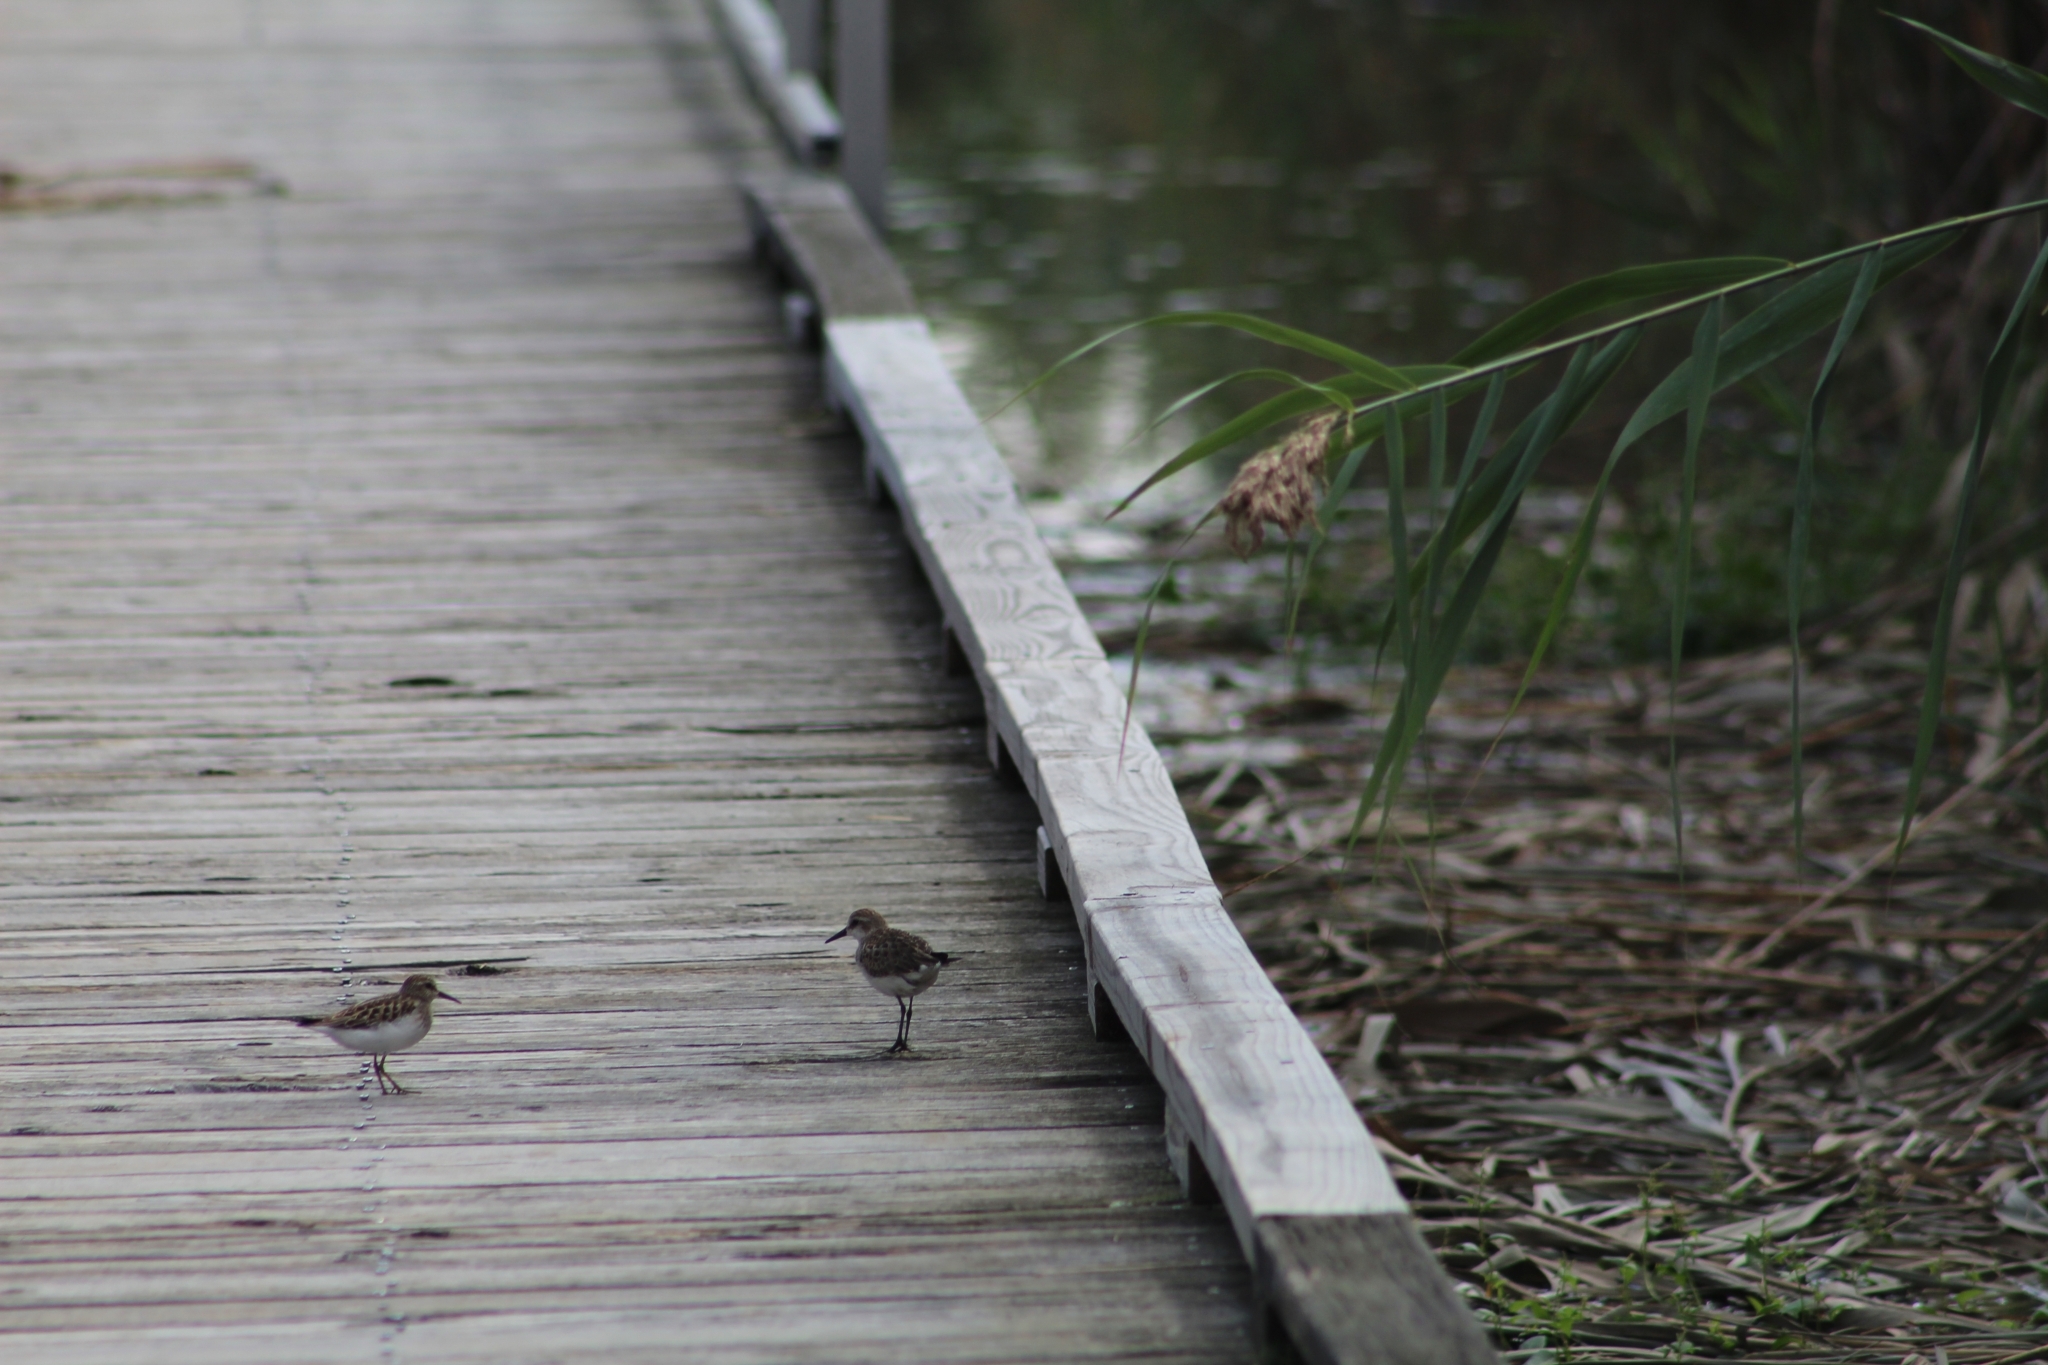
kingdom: Animalia
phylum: Chordata
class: Aves
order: Charadriiformes
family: Scolopacidae
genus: Calidris
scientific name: Calidris minutilla
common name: Least sandpiper
